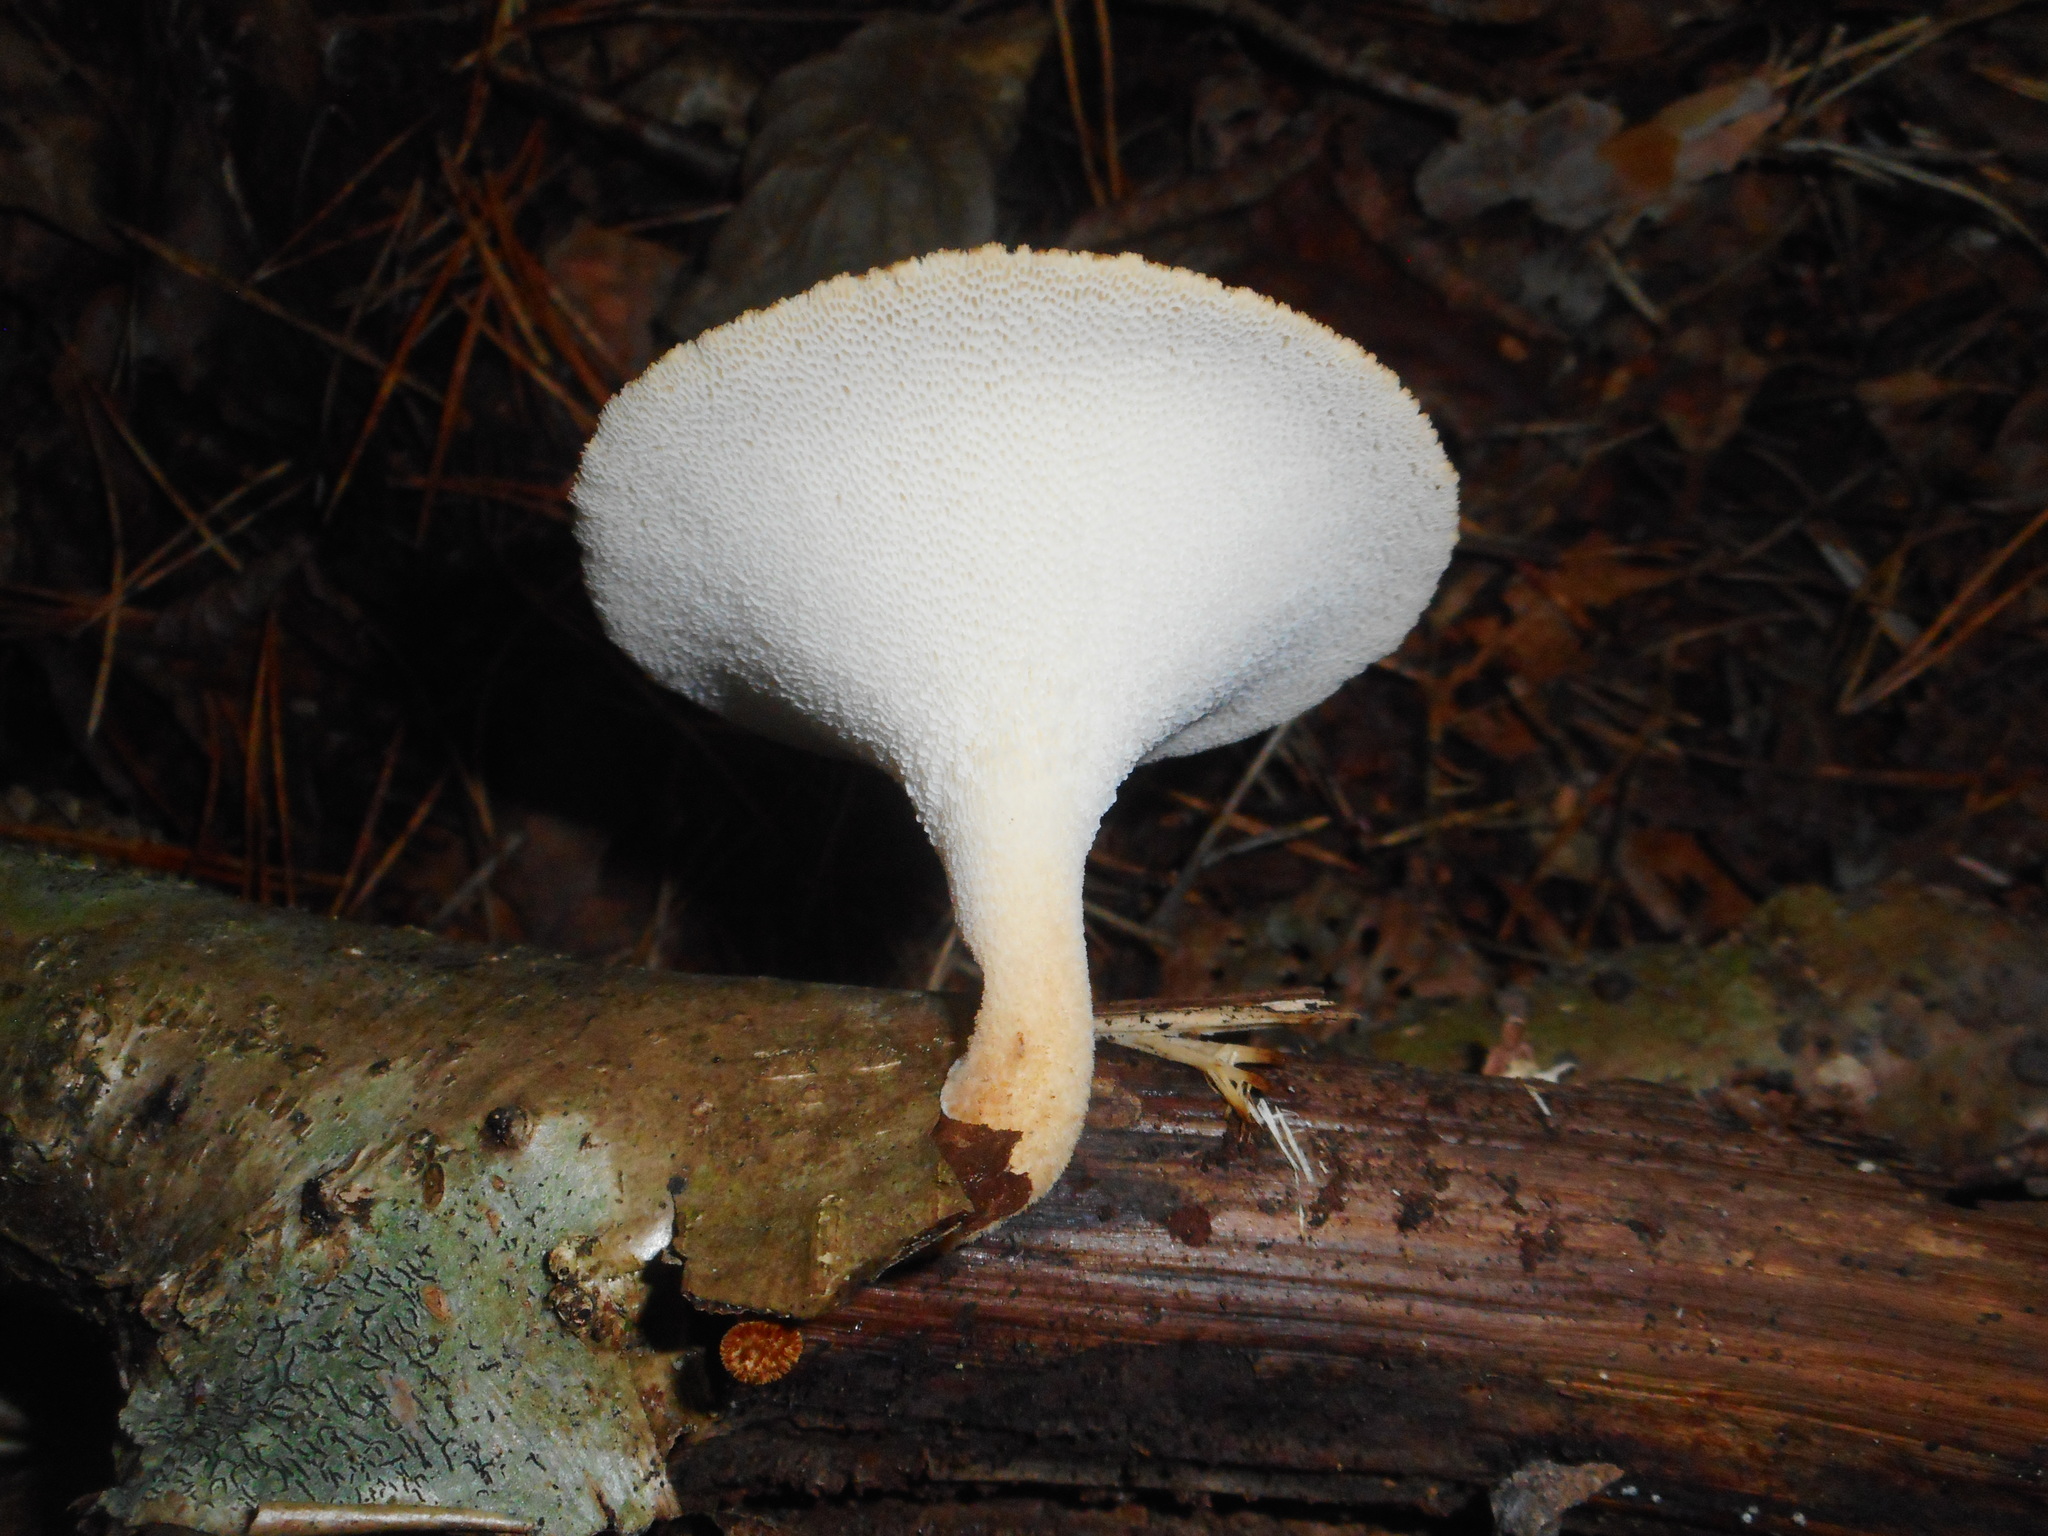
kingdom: Fungi
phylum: Basidiomycota
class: Agaricomycetes
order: Polyporales
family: Polyporaceae
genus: Polyporus
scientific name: Polyporus tuberaster
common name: Tuberous polypore
